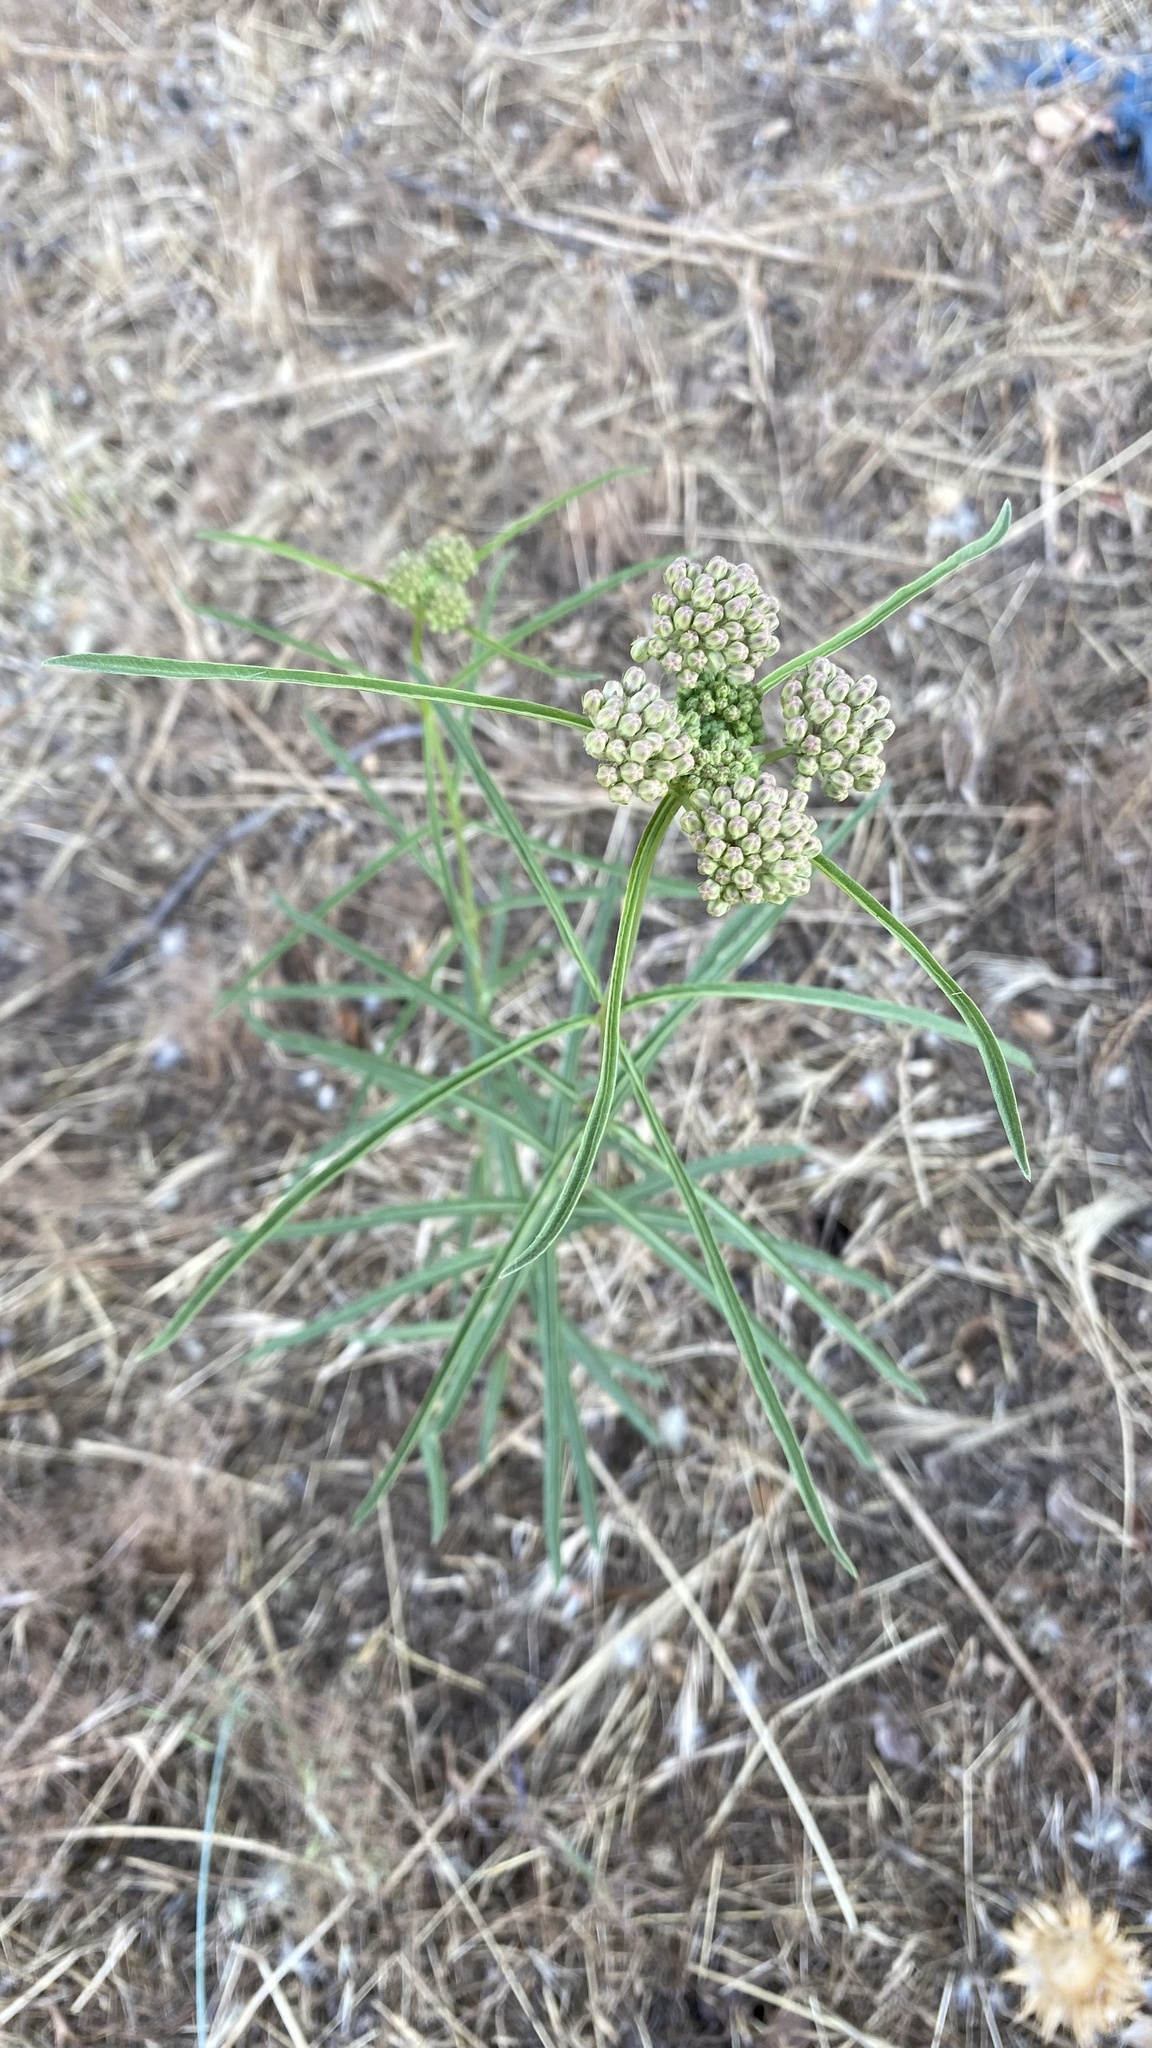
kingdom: Plantae
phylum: Tracheophyta
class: Magnoliopsida
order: Gentianales
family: Apocynaceae
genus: Asclepias
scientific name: Asclepias fascicularis
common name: Mexican milkweed
